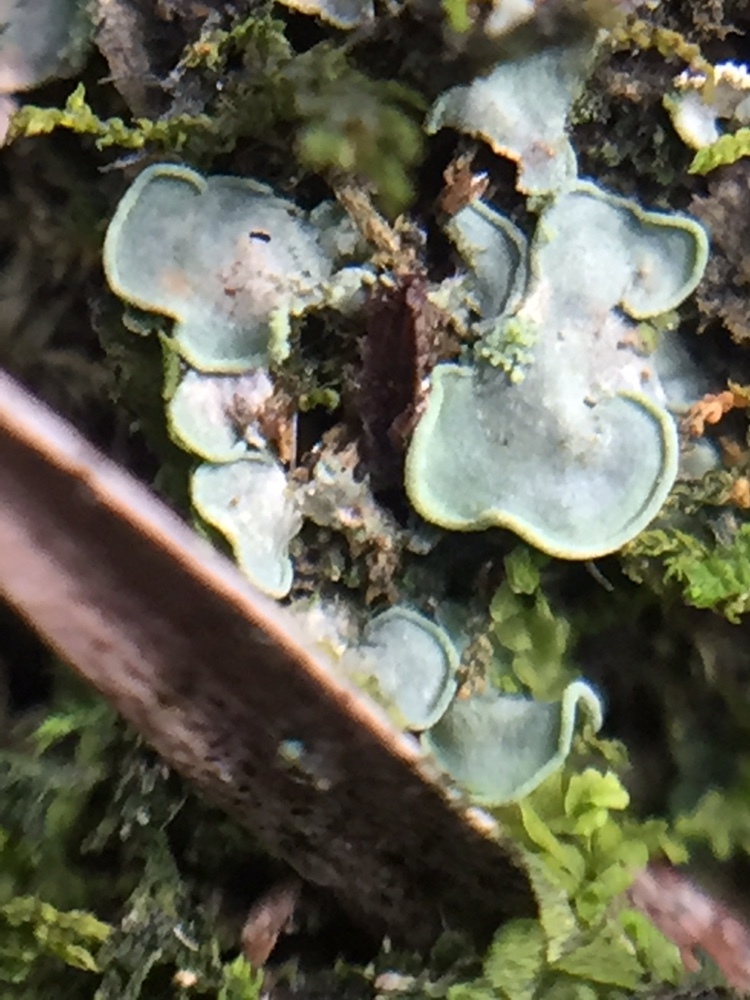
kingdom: Fungi
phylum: Ascomycota
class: Eurotiomycetes
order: Verrucariales
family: Verrucariaceae
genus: Normandina
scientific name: Normandina pulchella
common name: Elf ears lichen
